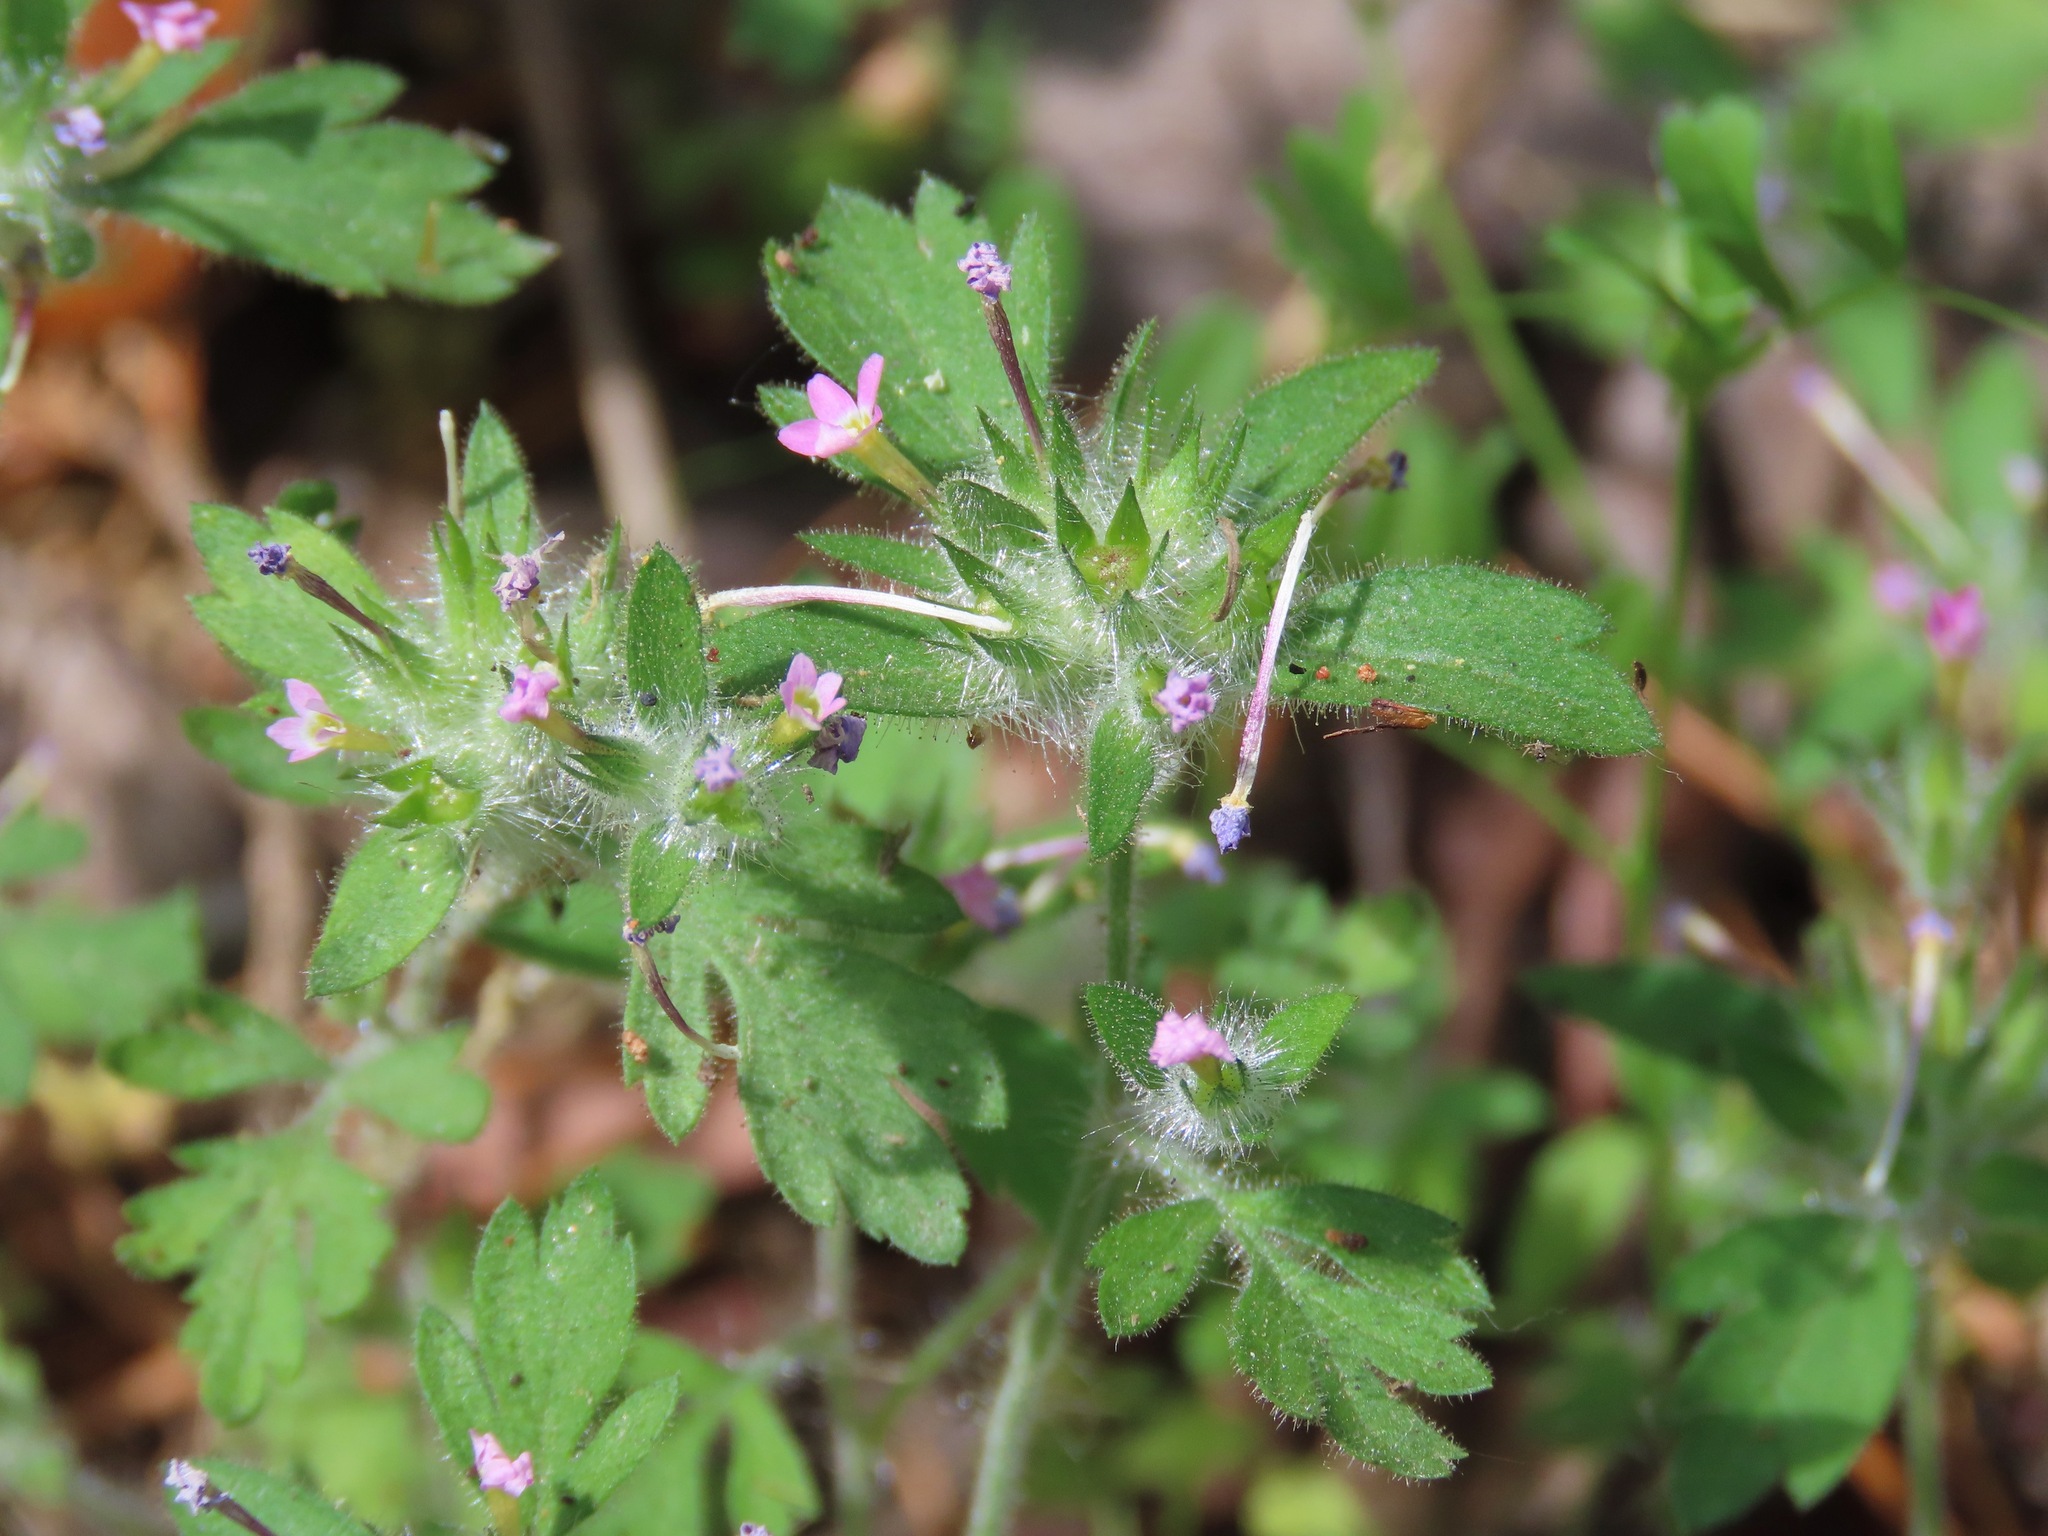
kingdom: Plantae
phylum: Tracheophyta
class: Magnoliopsida
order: Ericales
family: Polemoniaceae
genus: Collomia
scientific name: Collomia heterophylla
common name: Variable-leaved collomia
